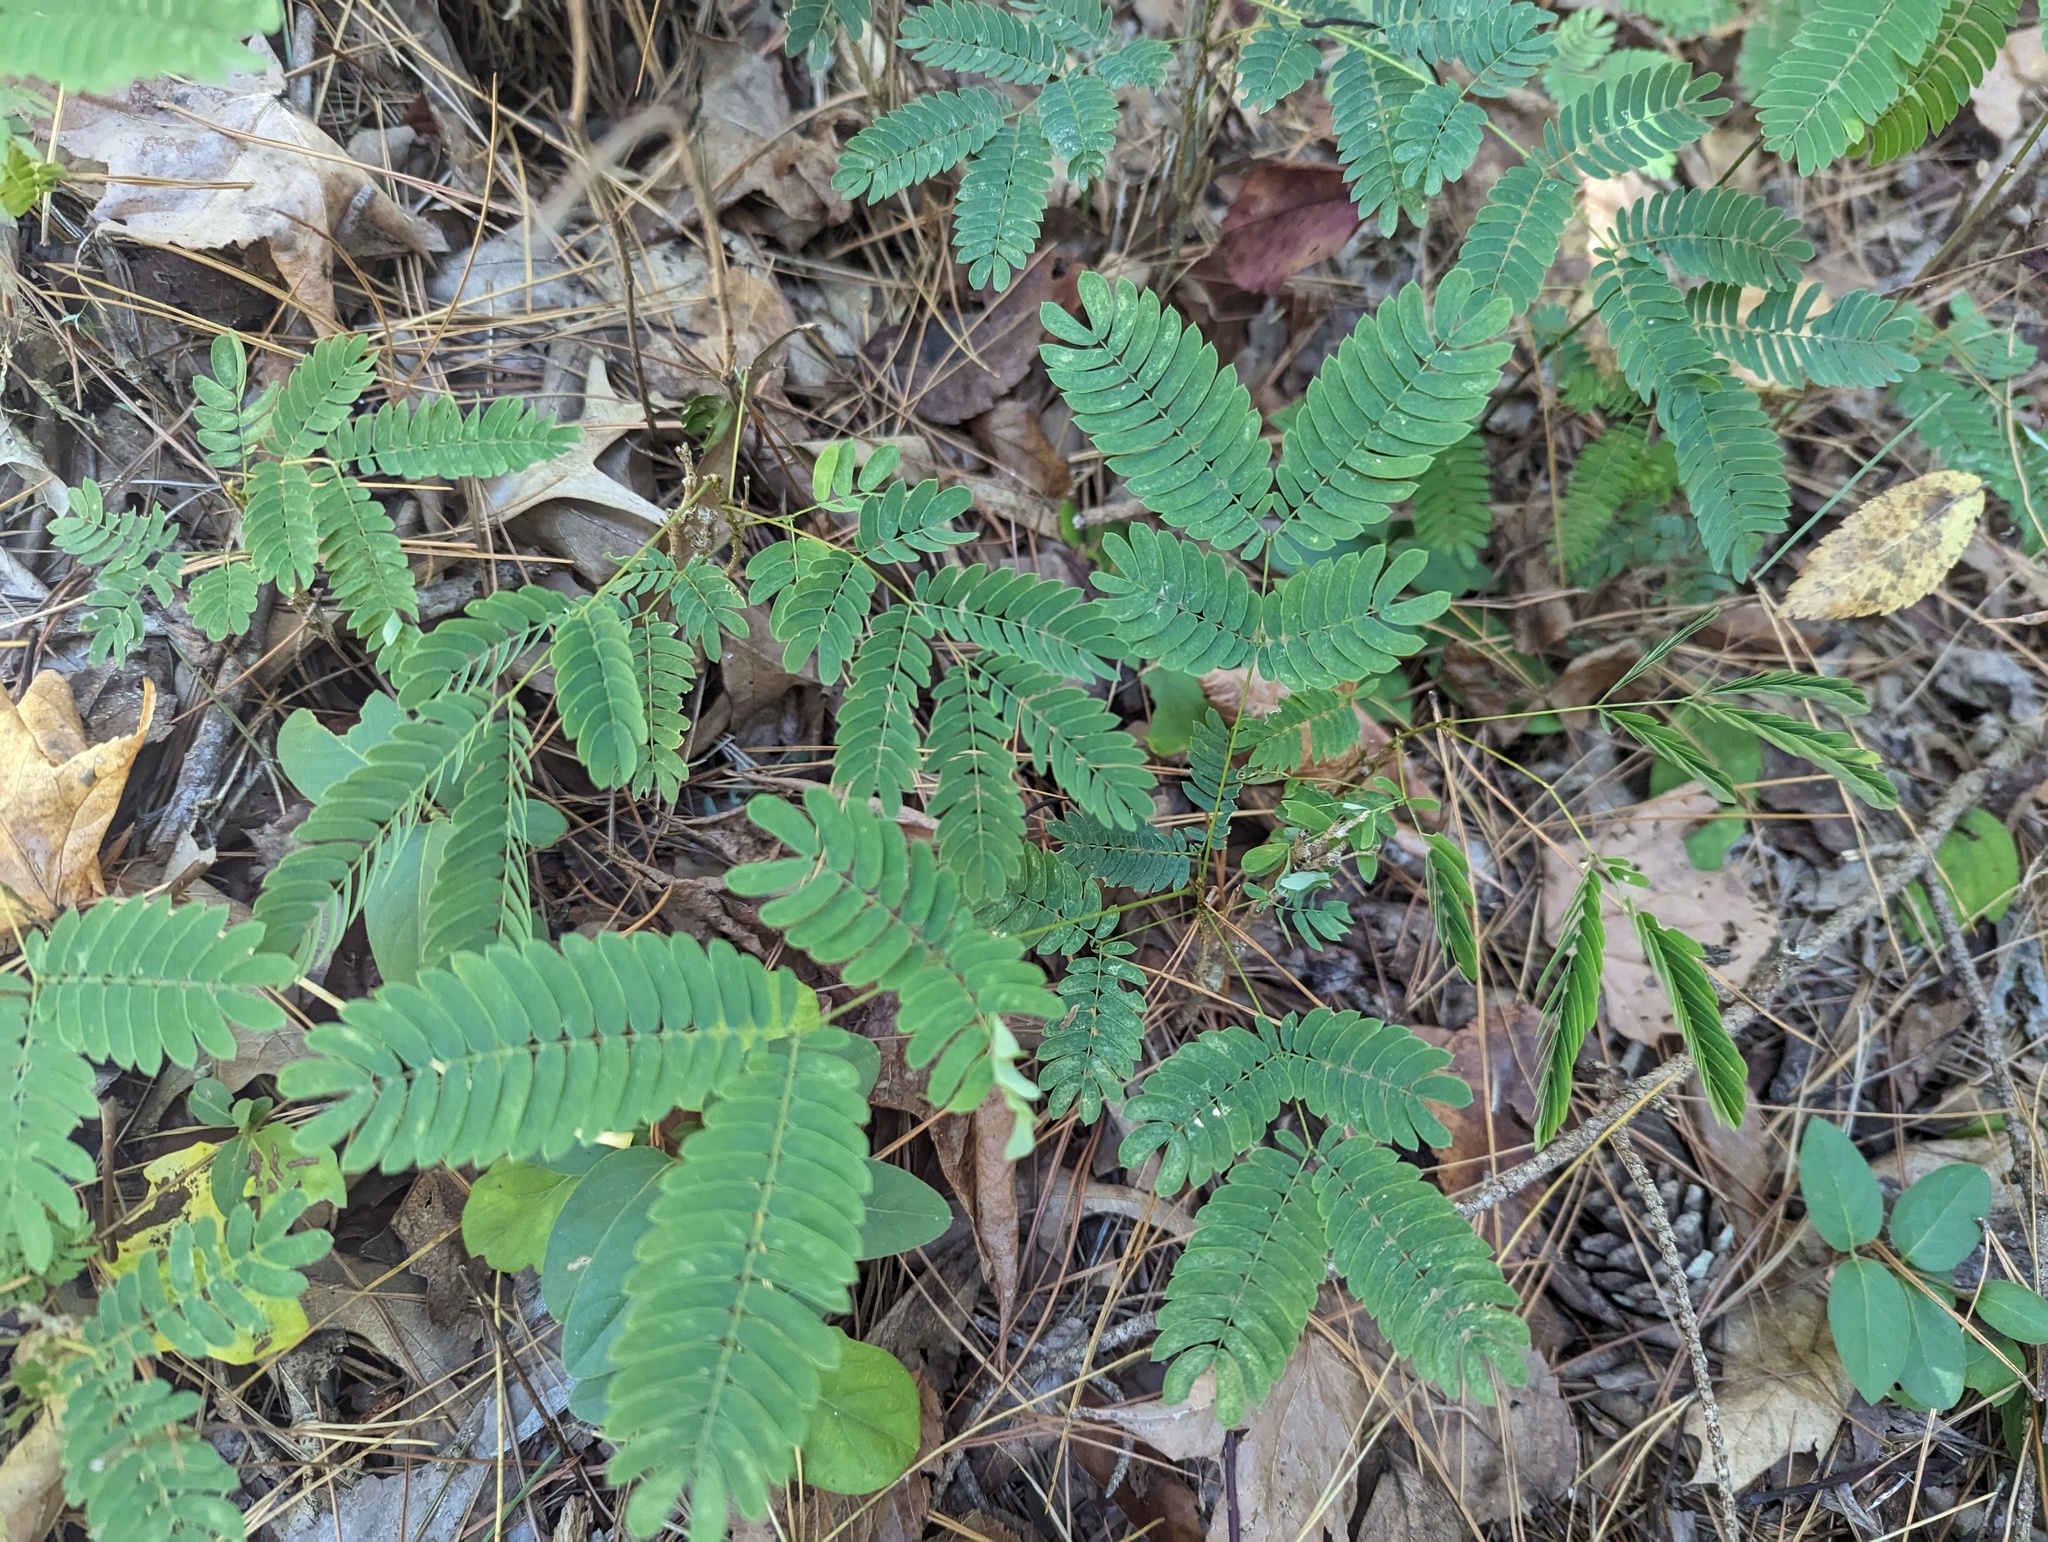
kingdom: Plantae
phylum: Tracheophyta
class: Magnoliopsida
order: Fabales
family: Fabaceae
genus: Albizia
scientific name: Albizia julibrissin
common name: Silktree
